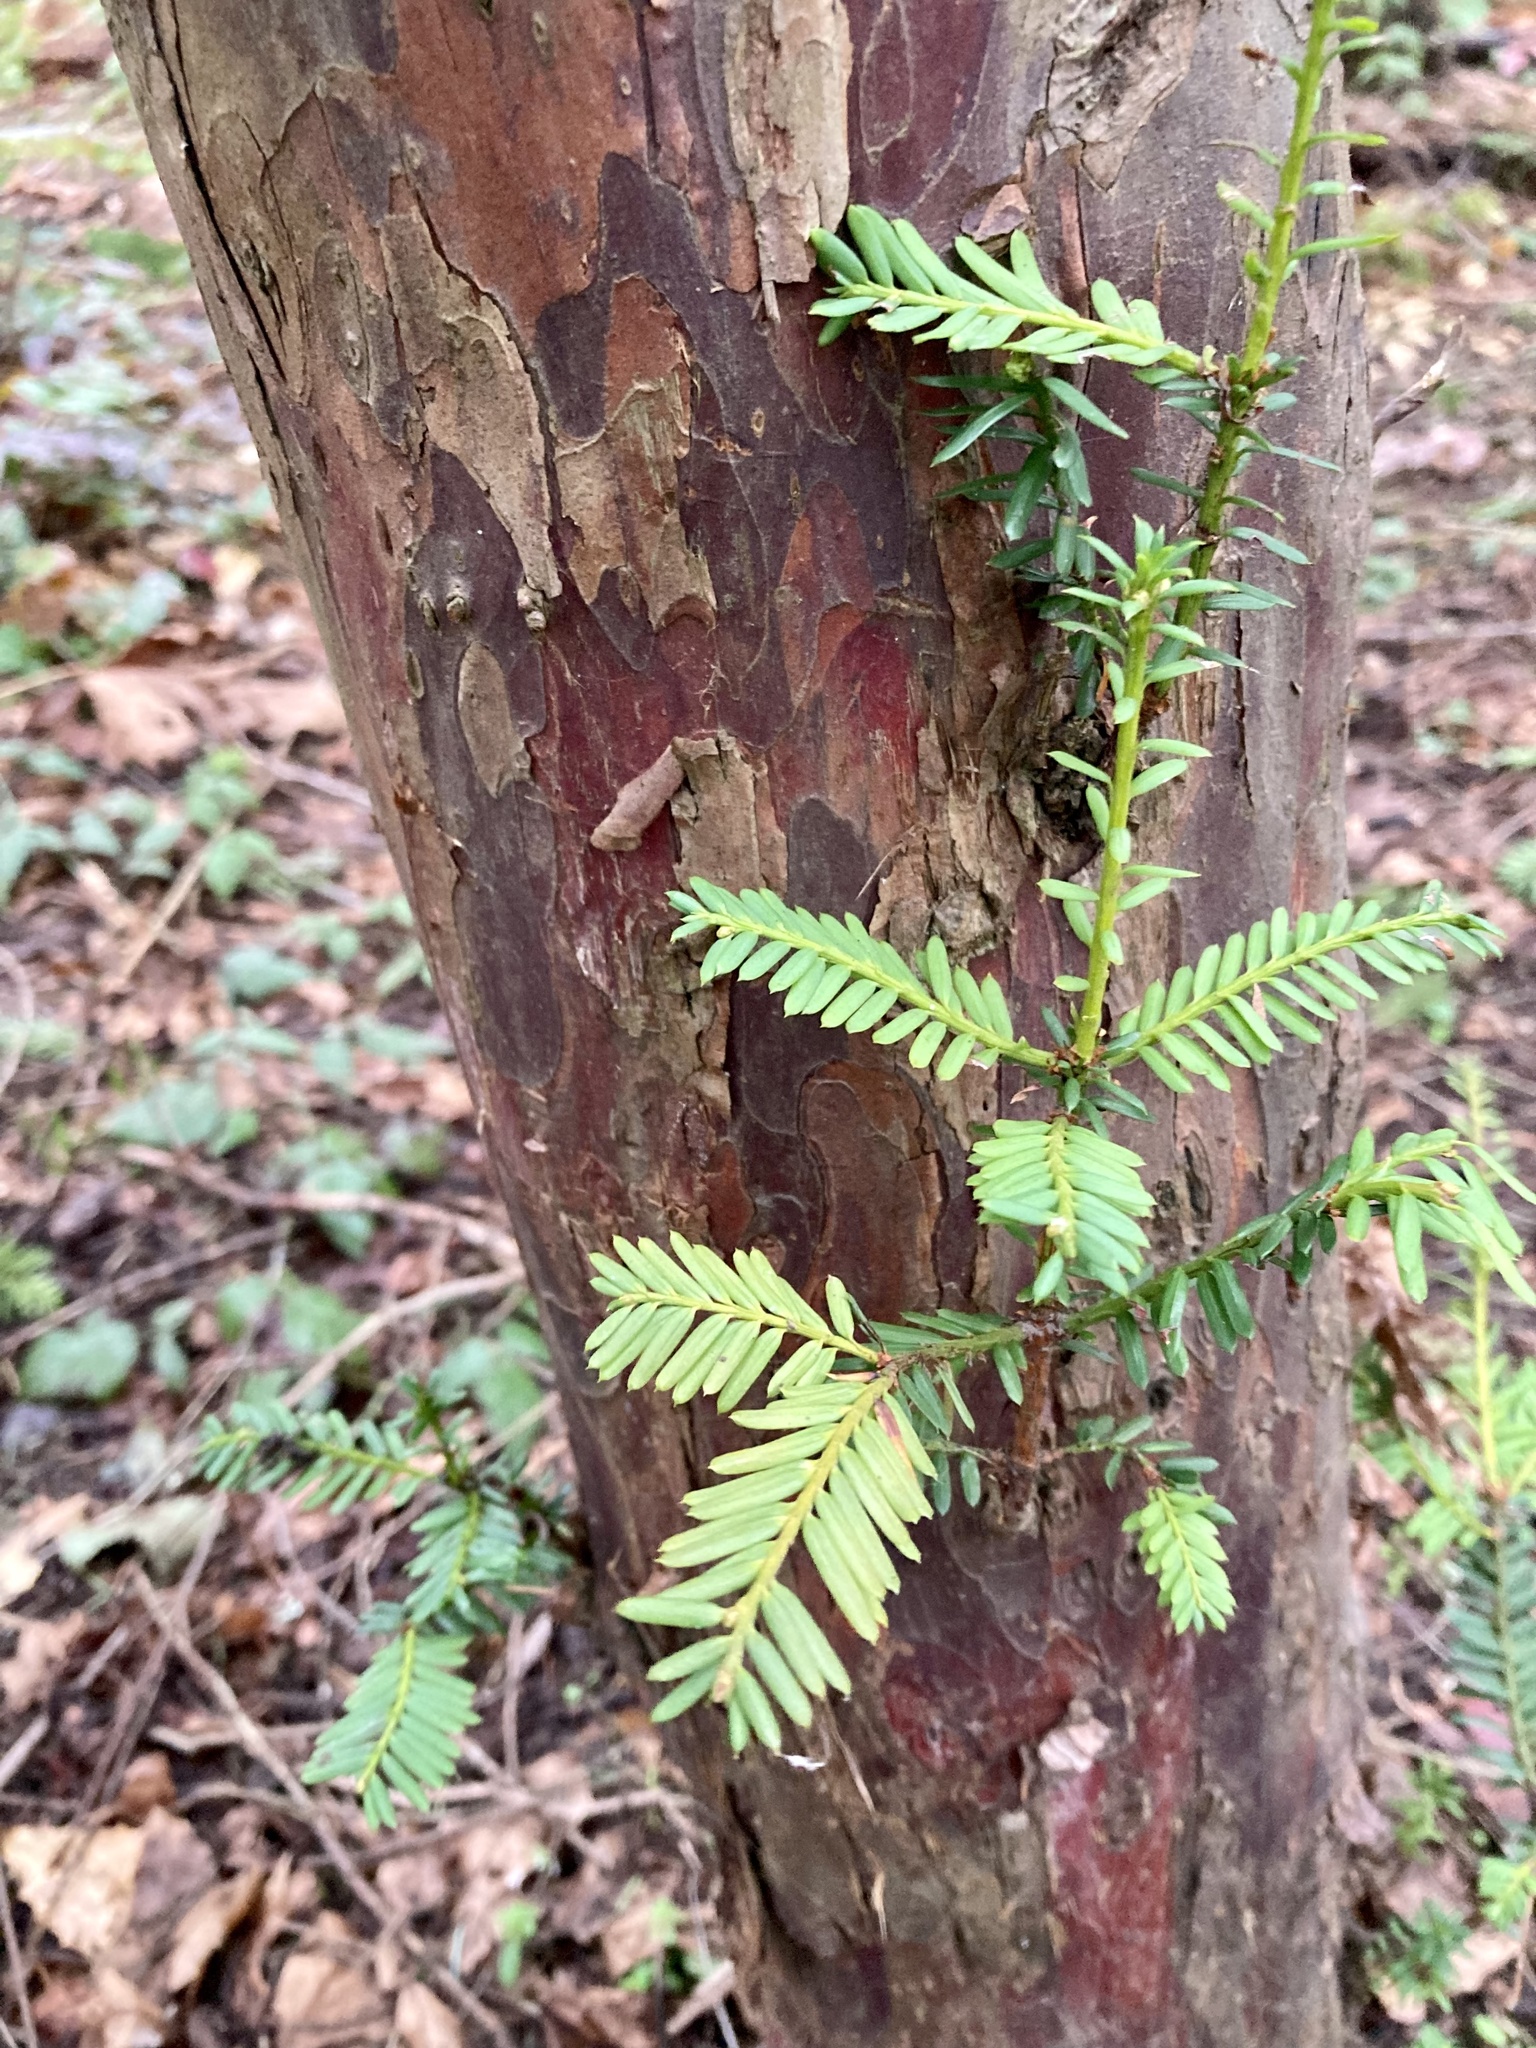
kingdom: Plantae
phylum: Tracheophyta
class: Pinopsida
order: Pinales
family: Taxaceae
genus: Taxus
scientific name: Taxus brevifolia
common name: Pacific yew
